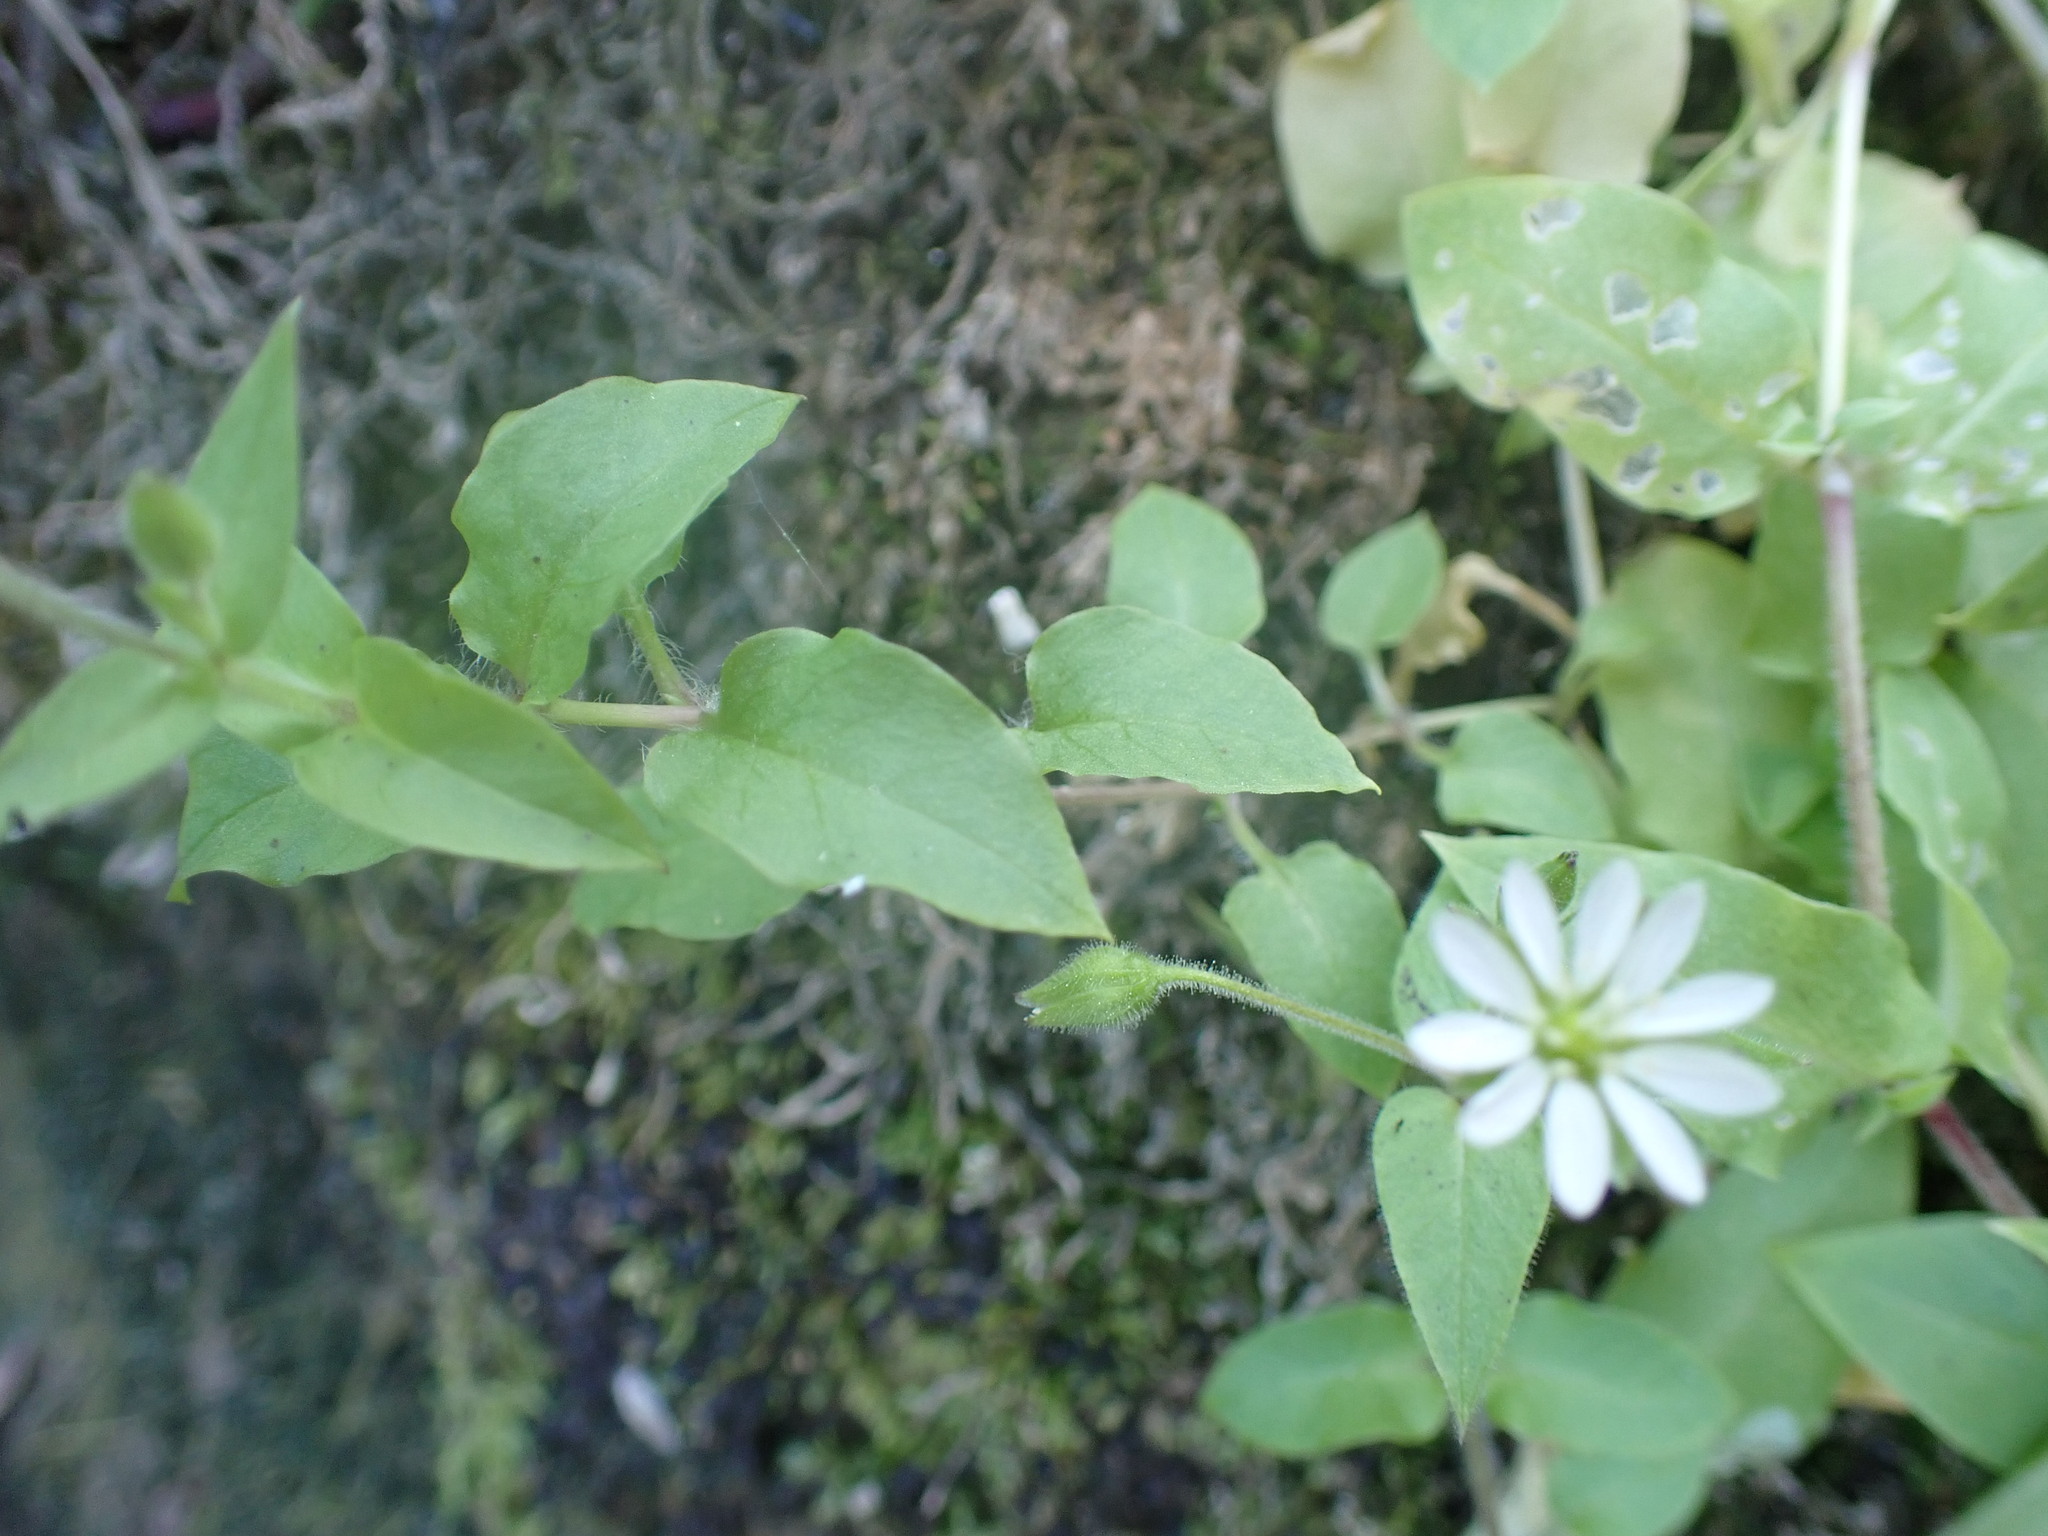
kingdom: Plantae
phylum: Tracheophyta
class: Magnoliopsida
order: Caryophyllales
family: Caryophyllaceae
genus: Stellaria
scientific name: Stellaria aquatica
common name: Water chickweed
